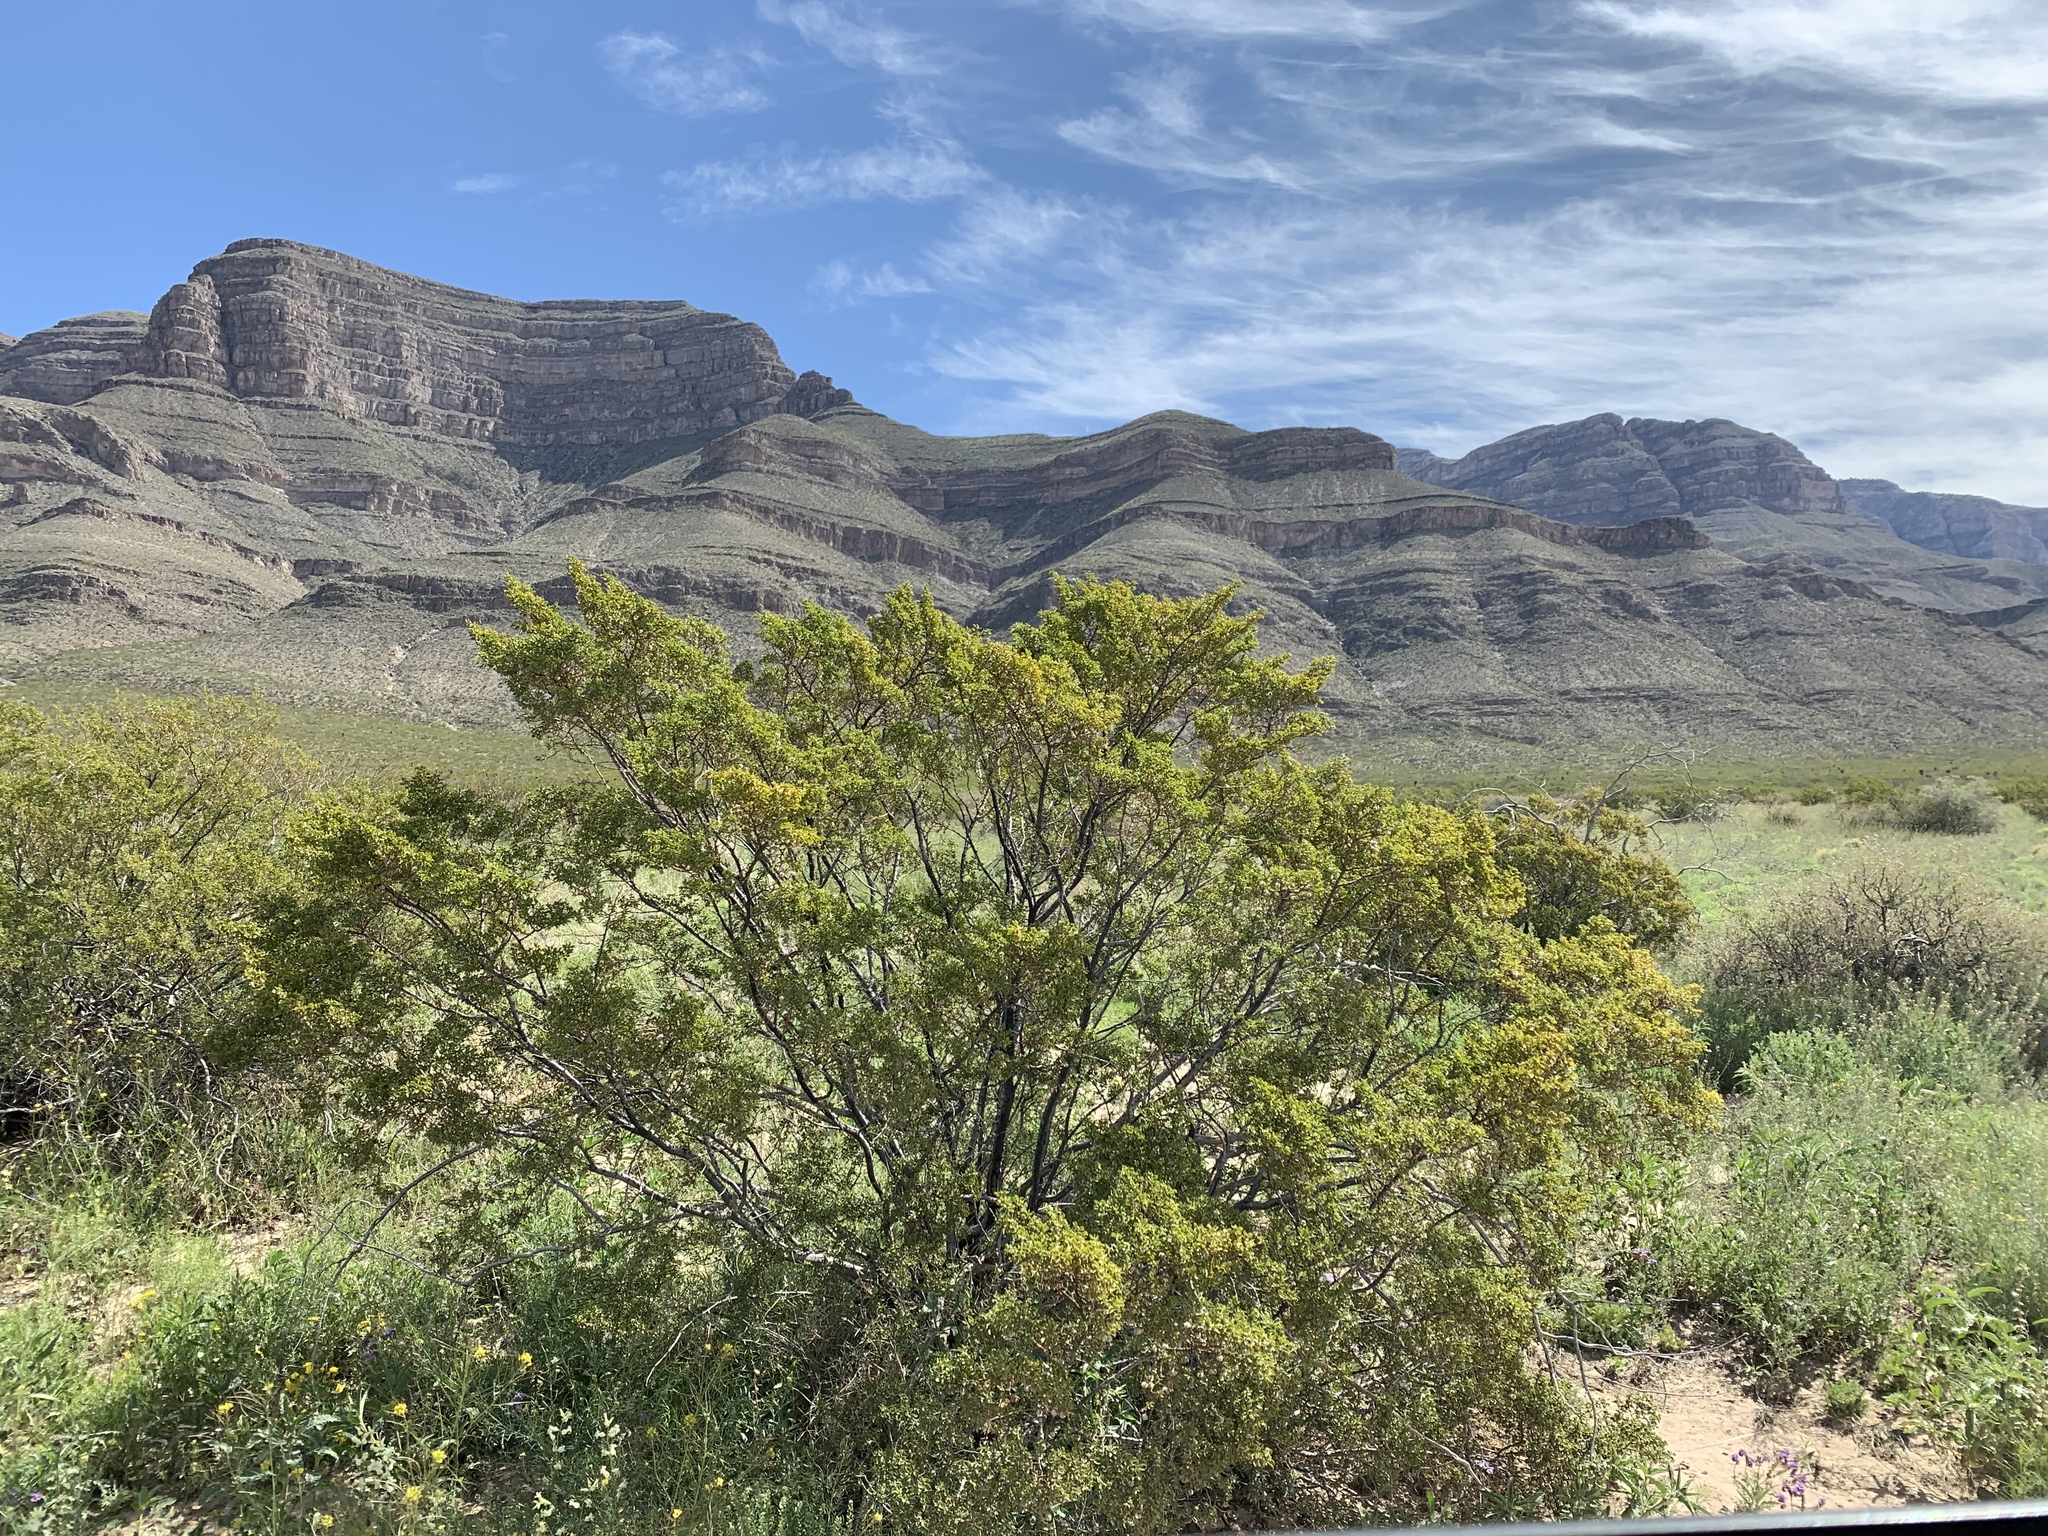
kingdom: Plantae
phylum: Tracheophyta
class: Magnoliopsida
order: Zygophyllales
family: Zygophyllaceae
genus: Larrea
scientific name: Larrea tridentata
